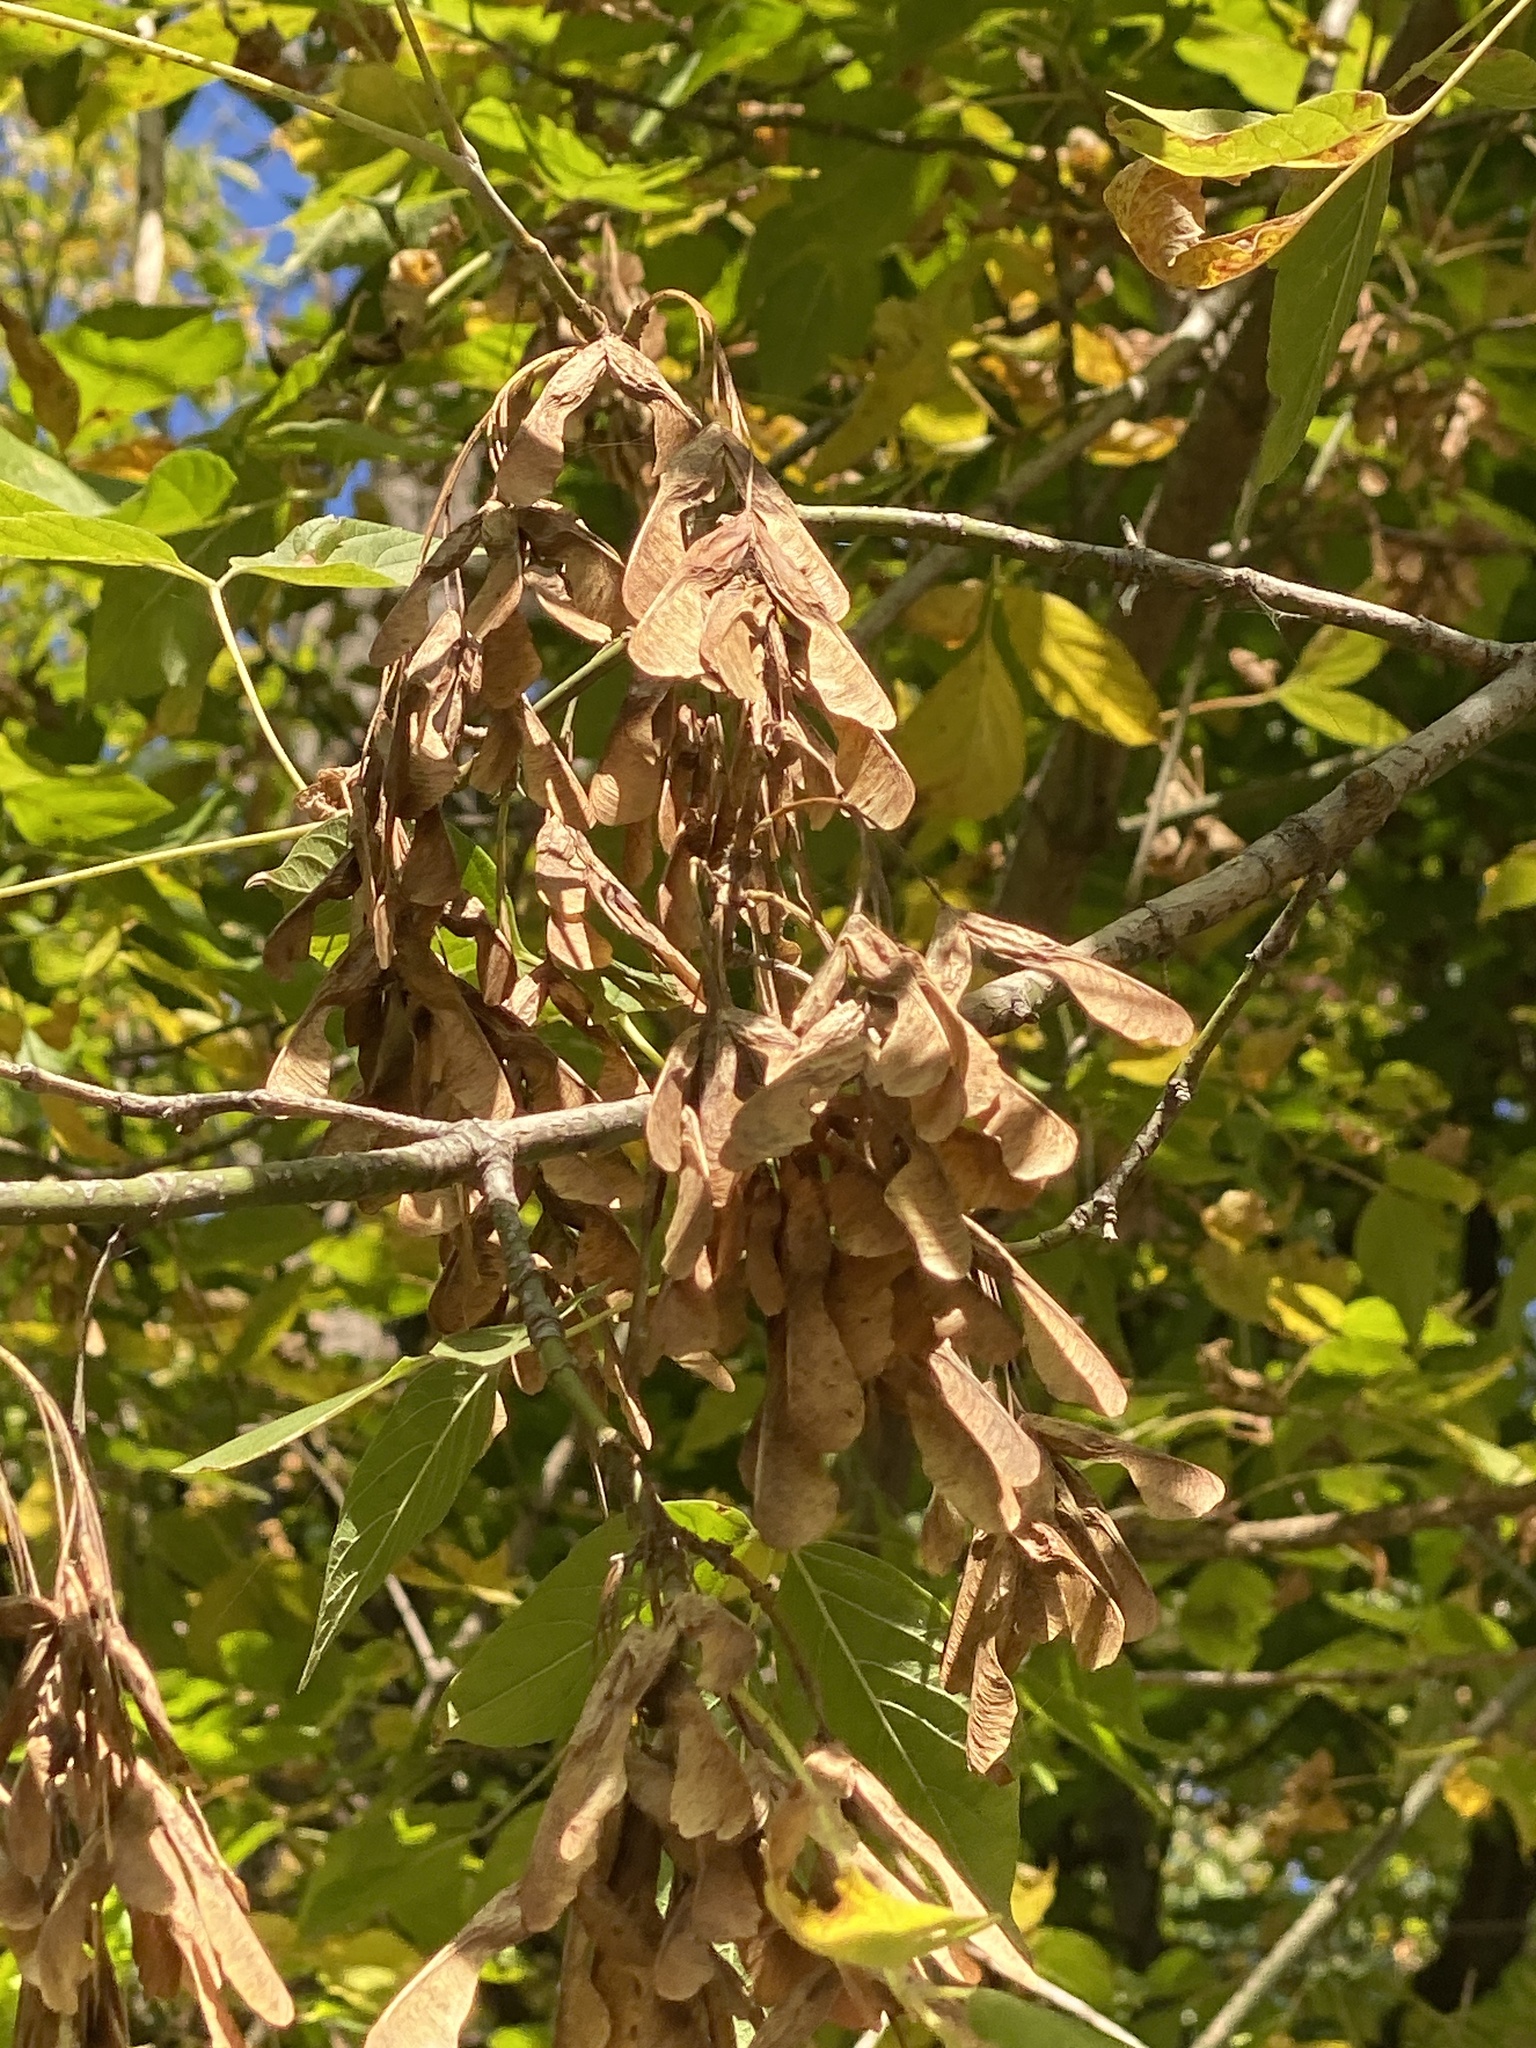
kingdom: Plantae
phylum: Tracheophyta
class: Magnoliopsida
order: Sapindales
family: Sapindaceae
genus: Acer
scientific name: Acer negundo
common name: Ashleaf maple
